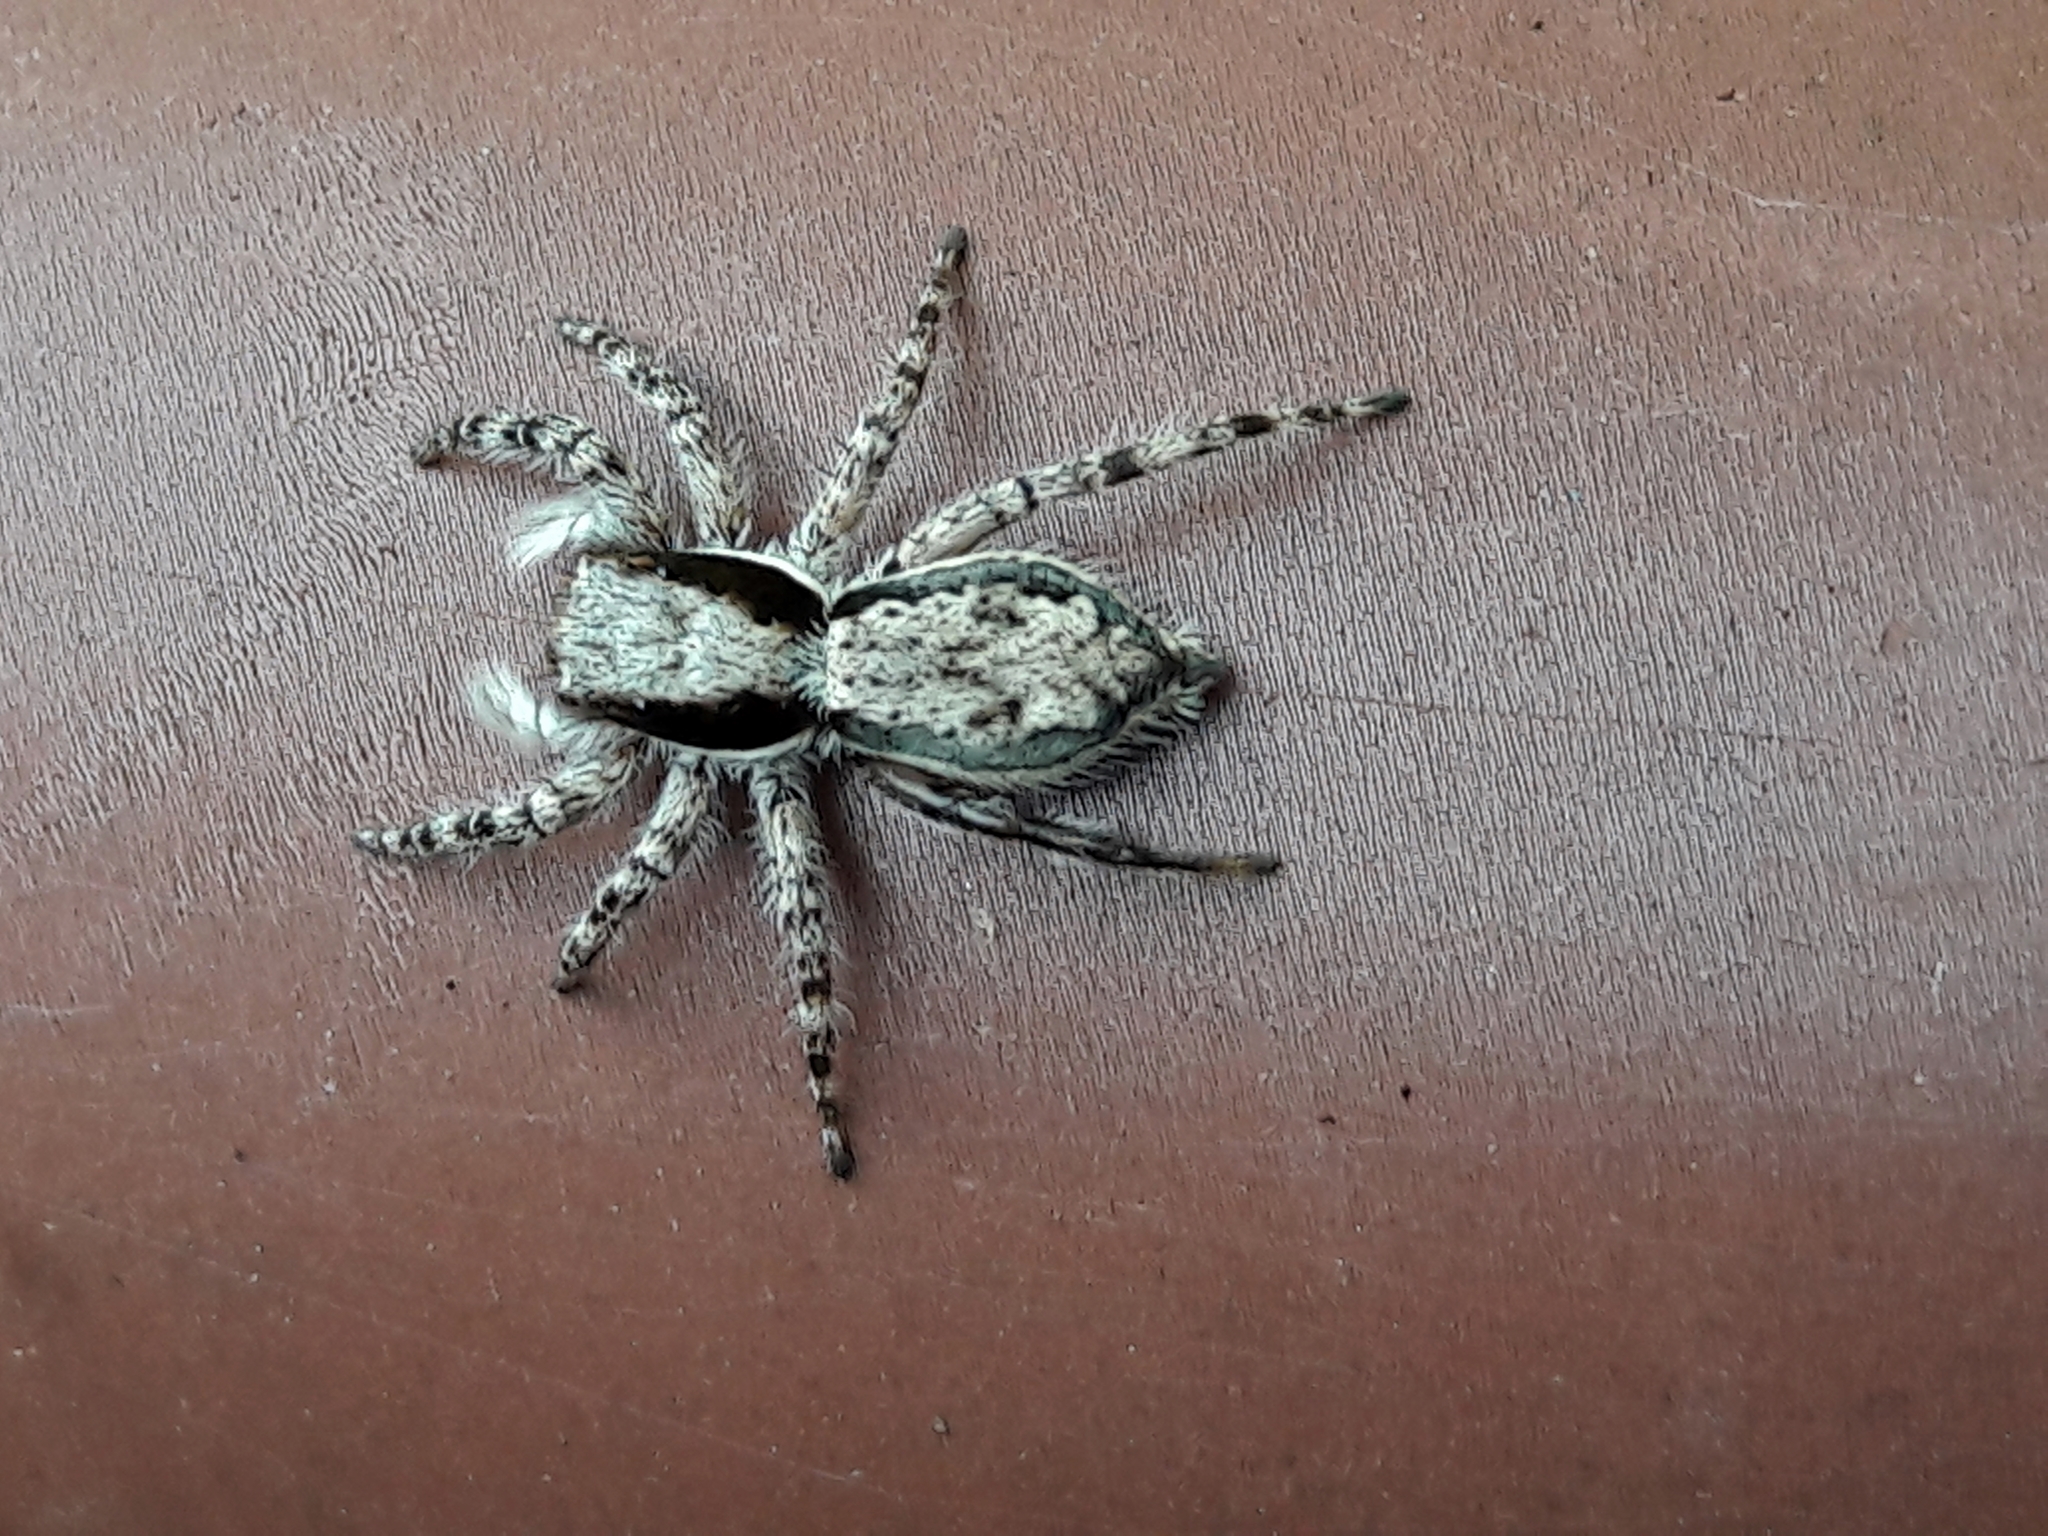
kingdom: Animalia
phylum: Arthropoda
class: Arachnida
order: Araneae
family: Salticidae
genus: Menemerus
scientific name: Menemerus bivittatus
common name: Gray wall jumper
